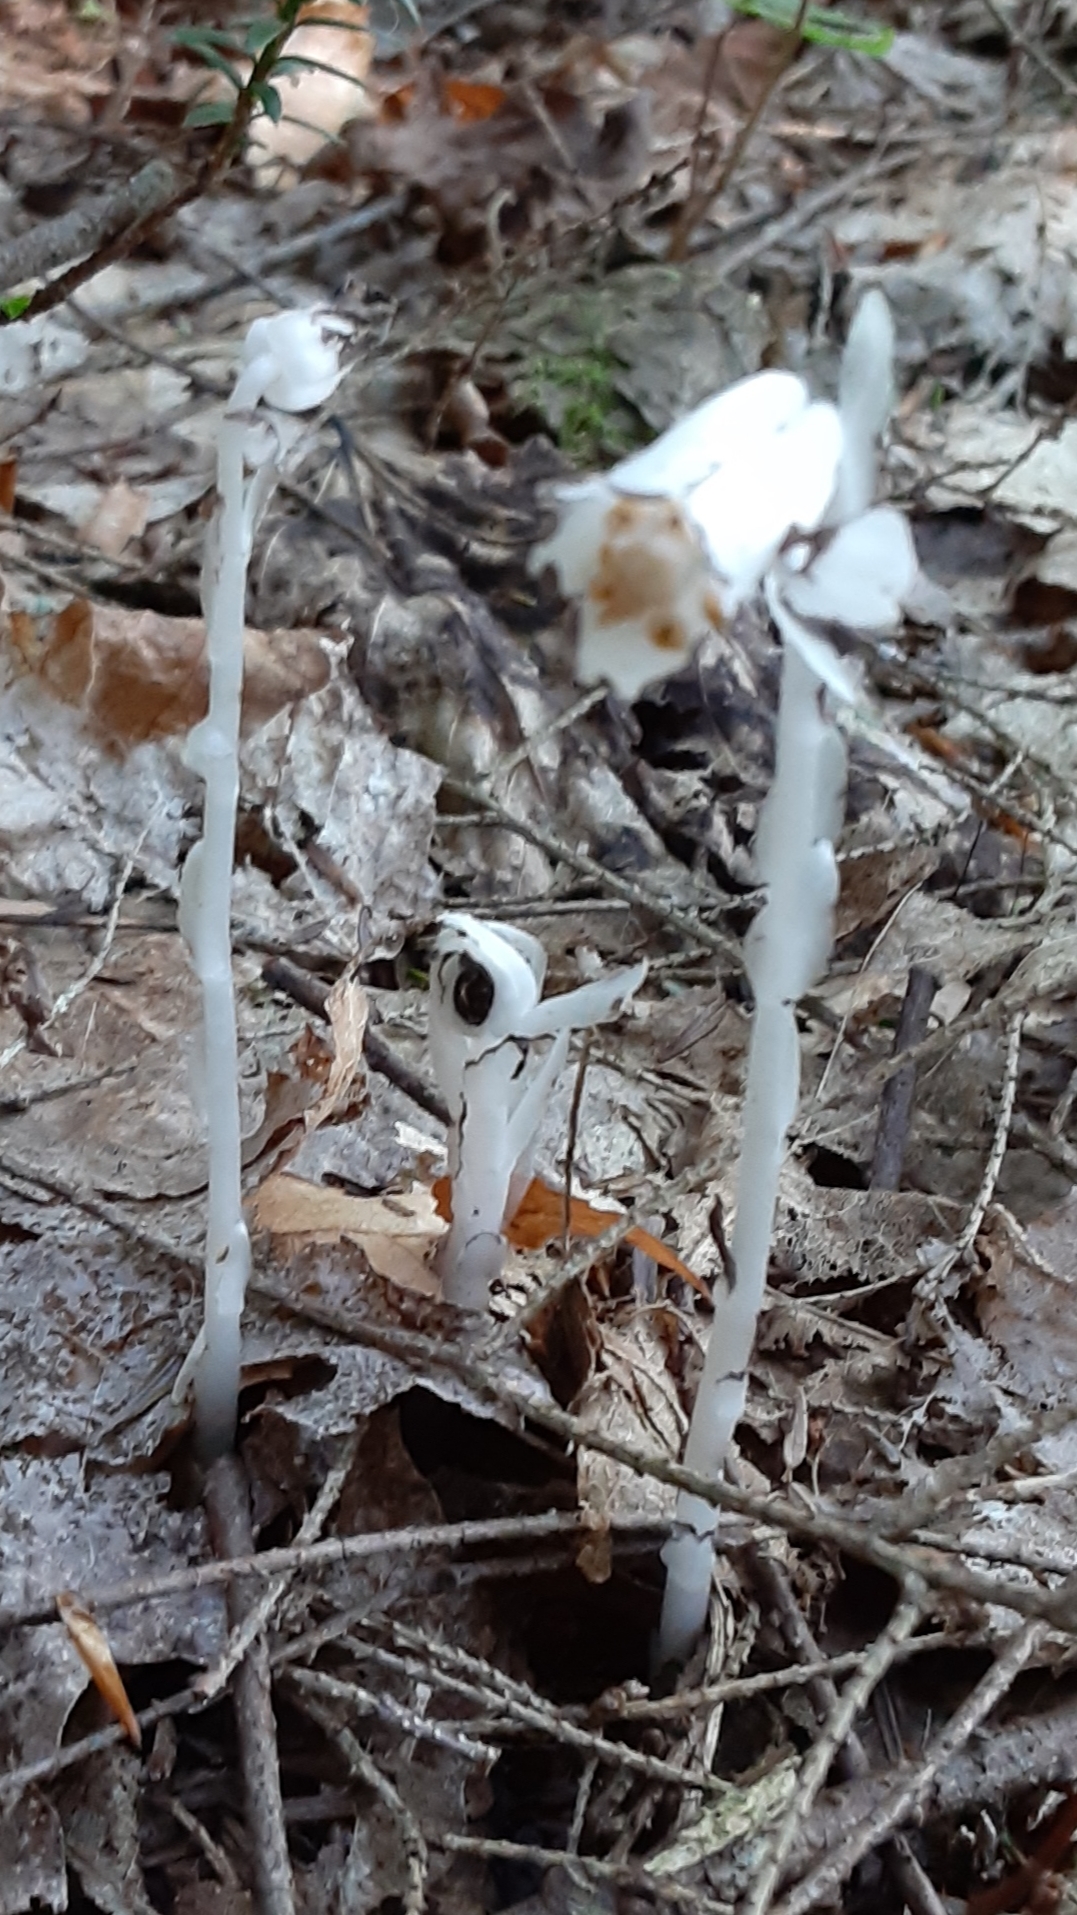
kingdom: Plantae
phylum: Tracheophyta
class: Magnoliopsida
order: Ericales
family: Ericaceae
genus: Monotropa
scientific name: Monotropa uniflora
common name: Convulsion root
